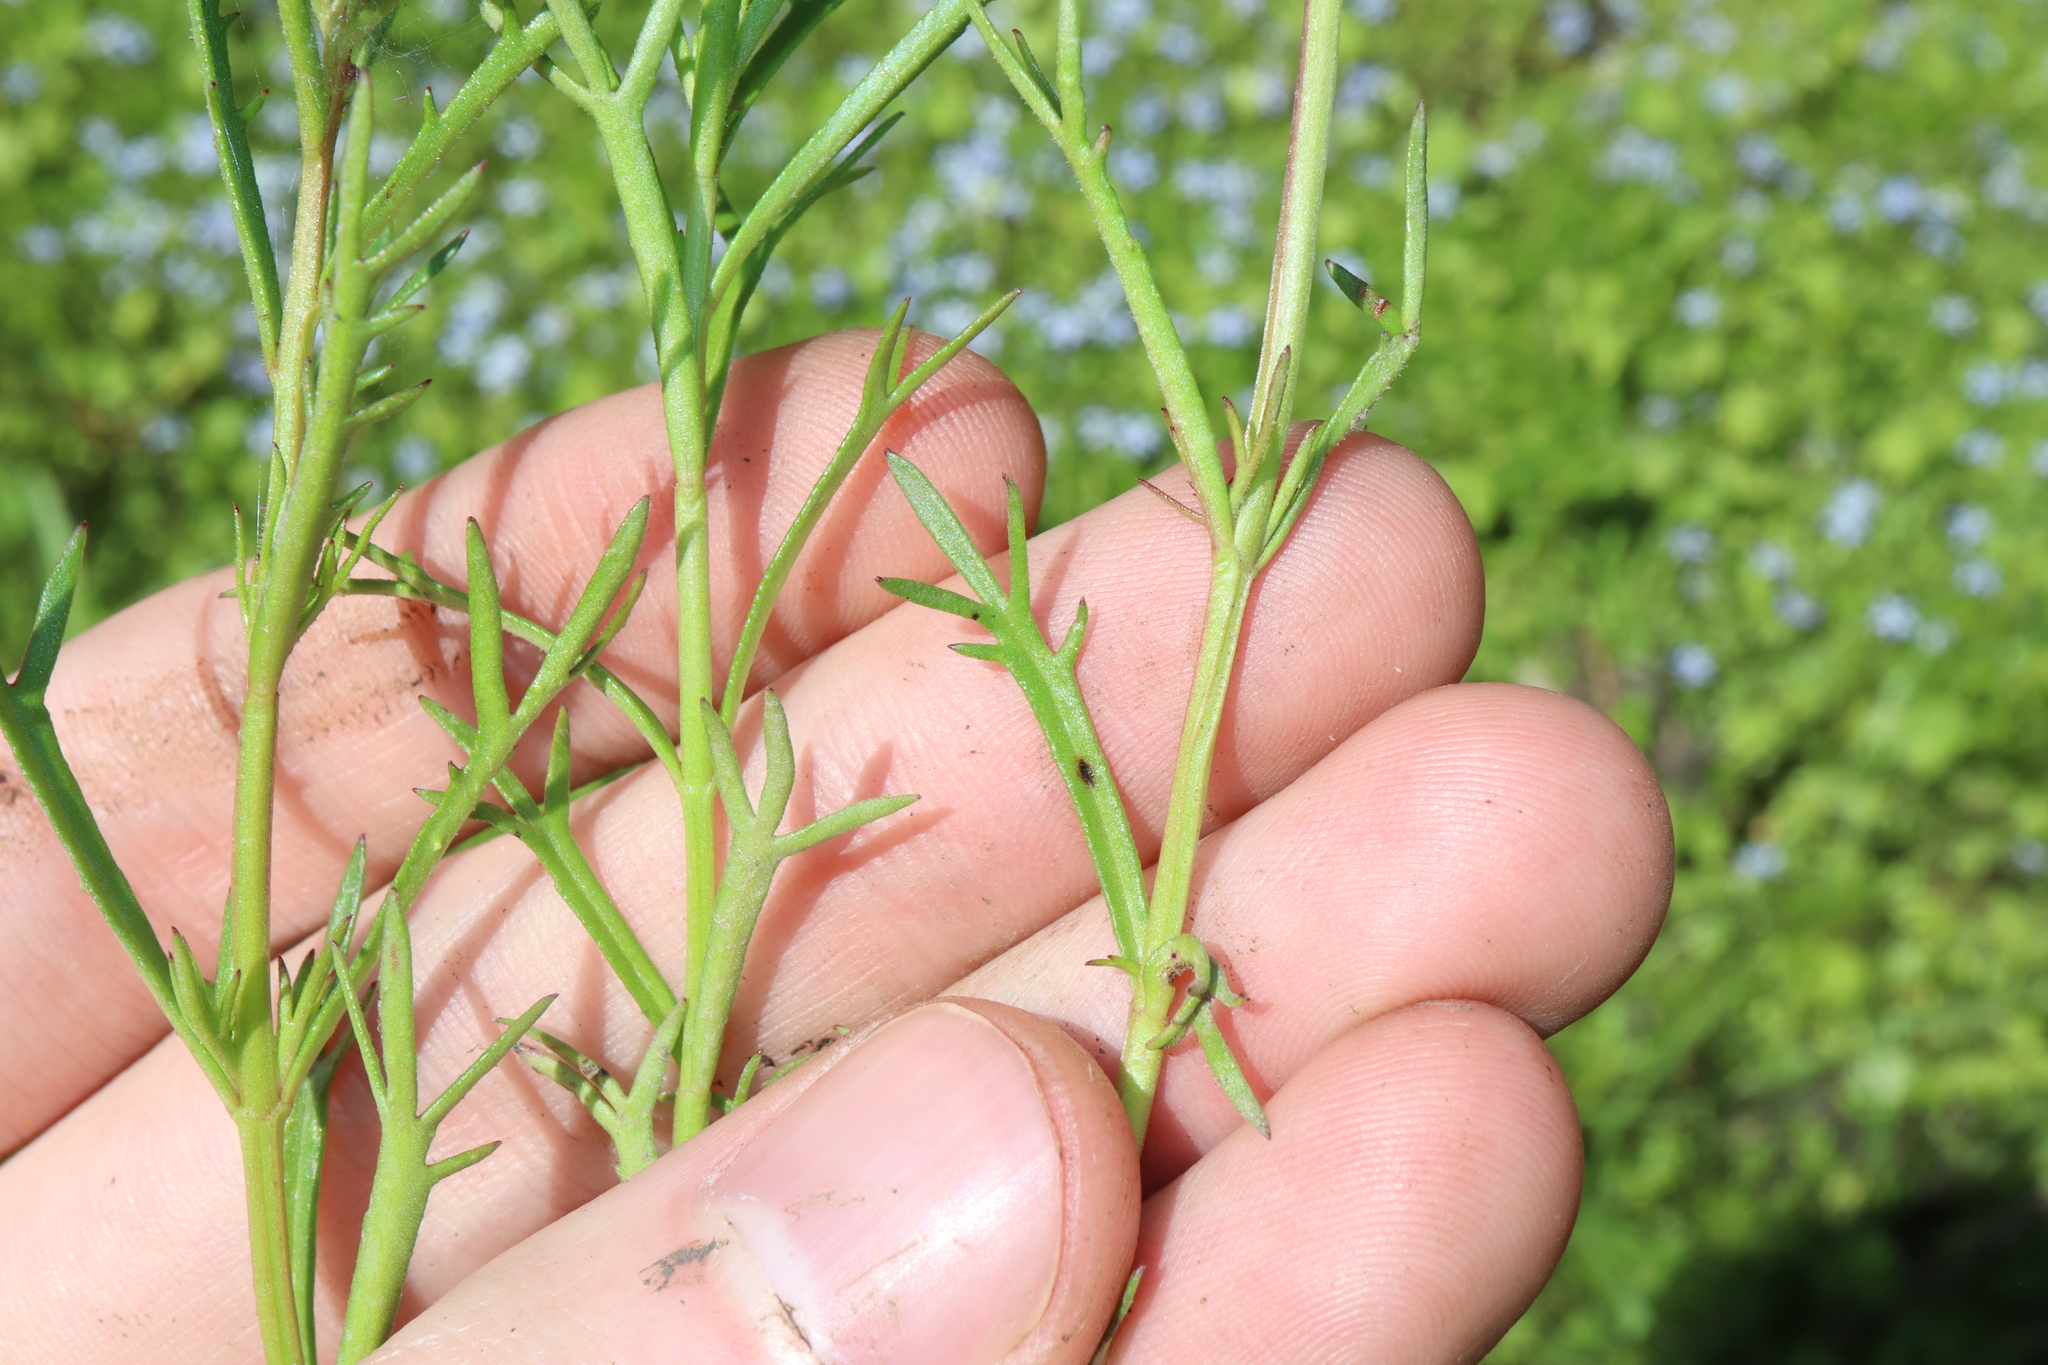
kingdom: Plantae
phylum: Tracheophyta
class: Magnoliopsida
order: Saxifragales
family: Haloragaceae
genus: Haloragis
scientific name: Haloragis heterophylla
